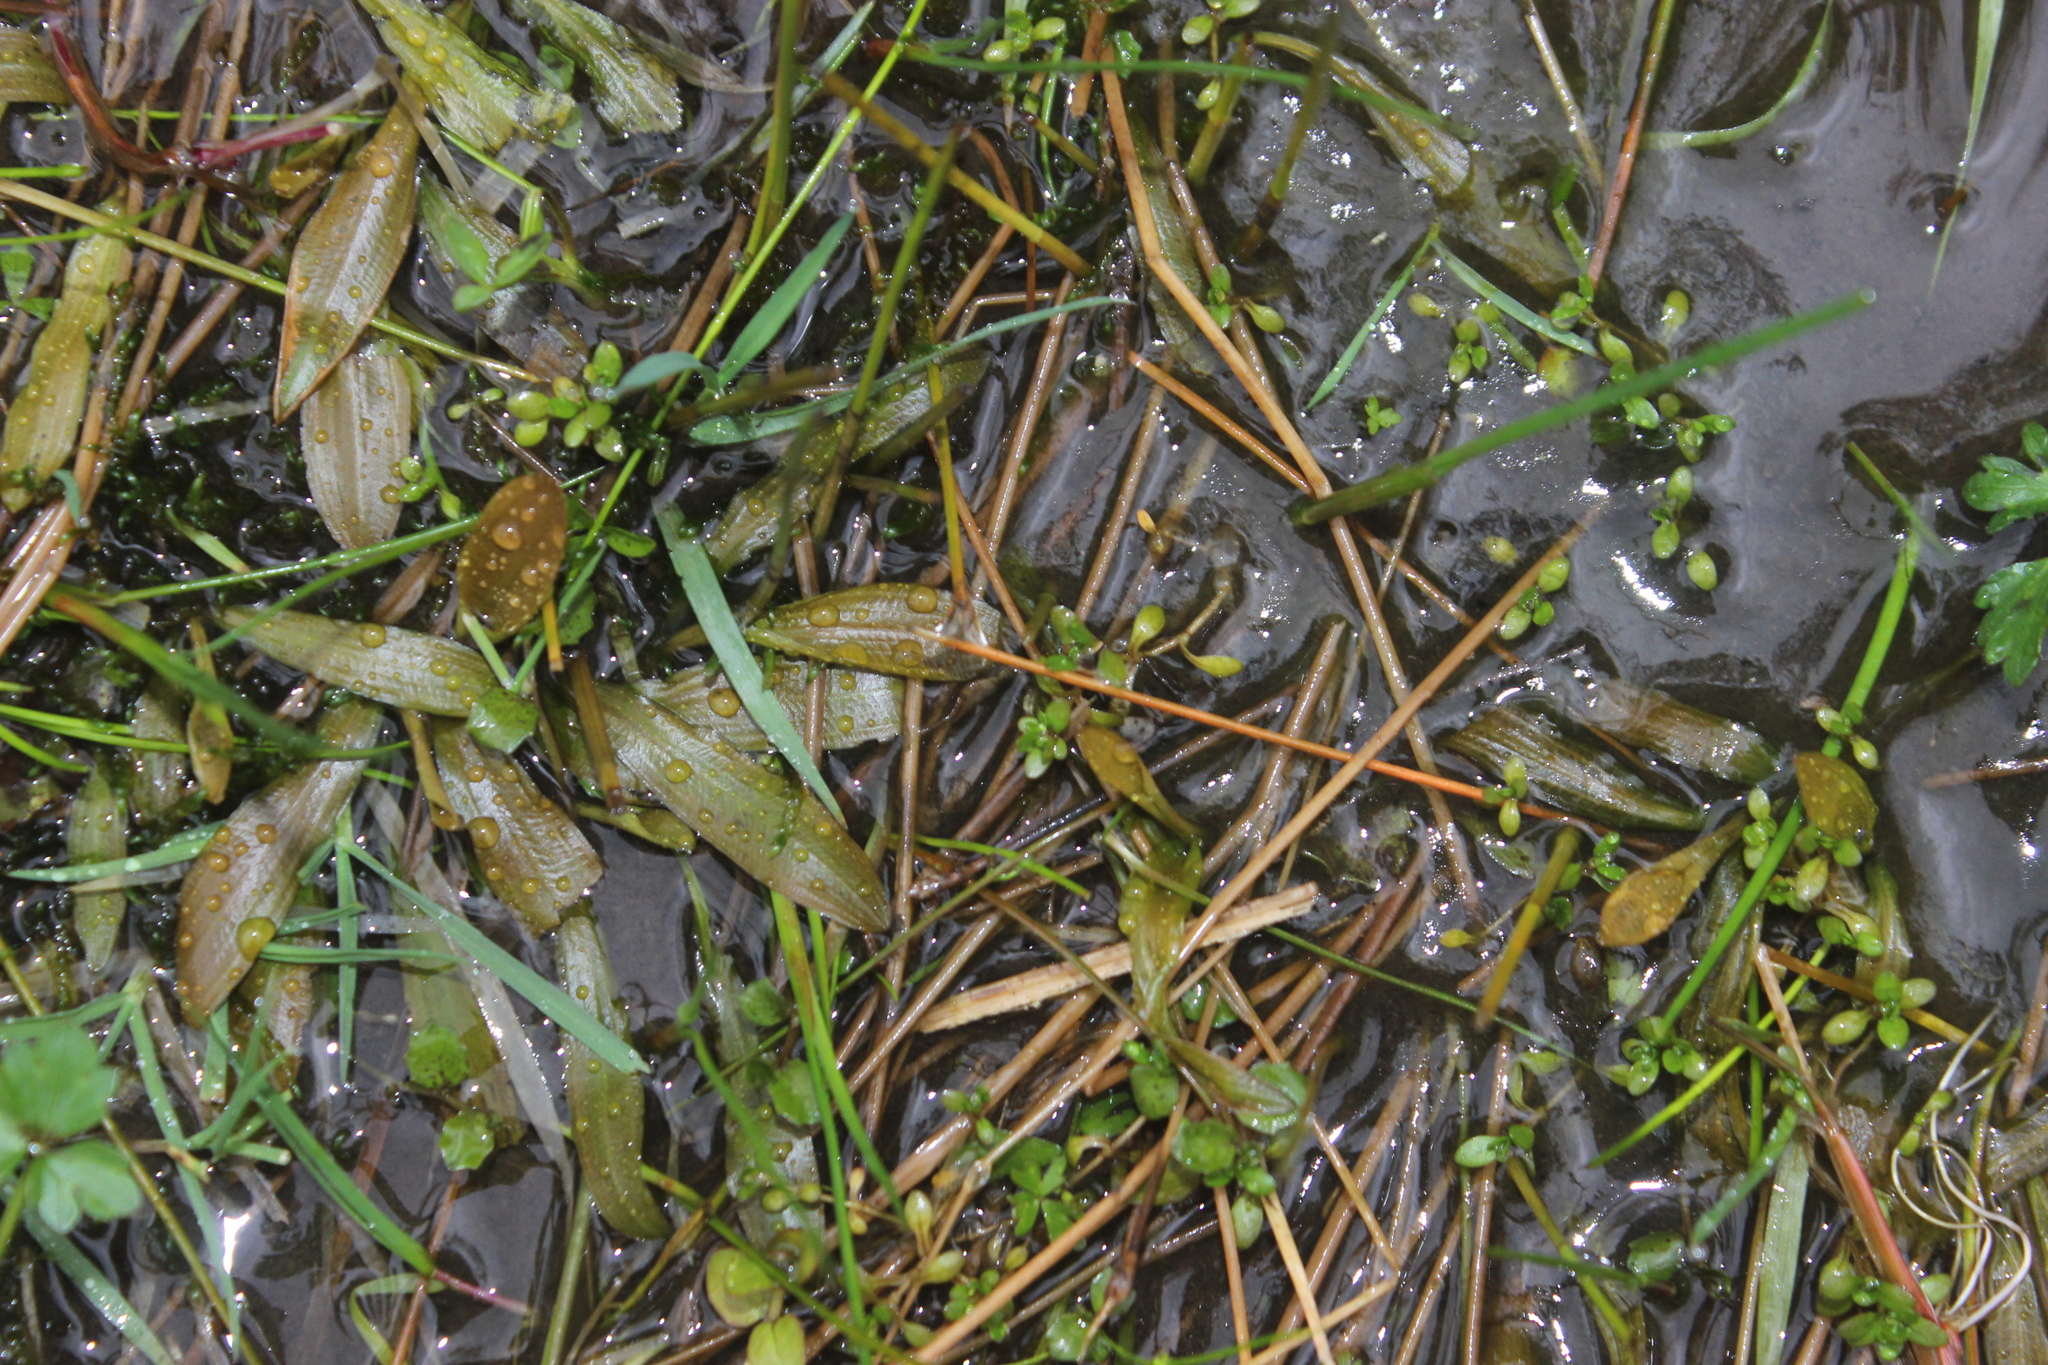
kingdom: Plantae
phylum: Tracheophyta
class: Liliopsida
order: Alismatales
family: Potamogetonaceae
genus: Potamogeton
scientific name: Potamogeton cheesemanii
